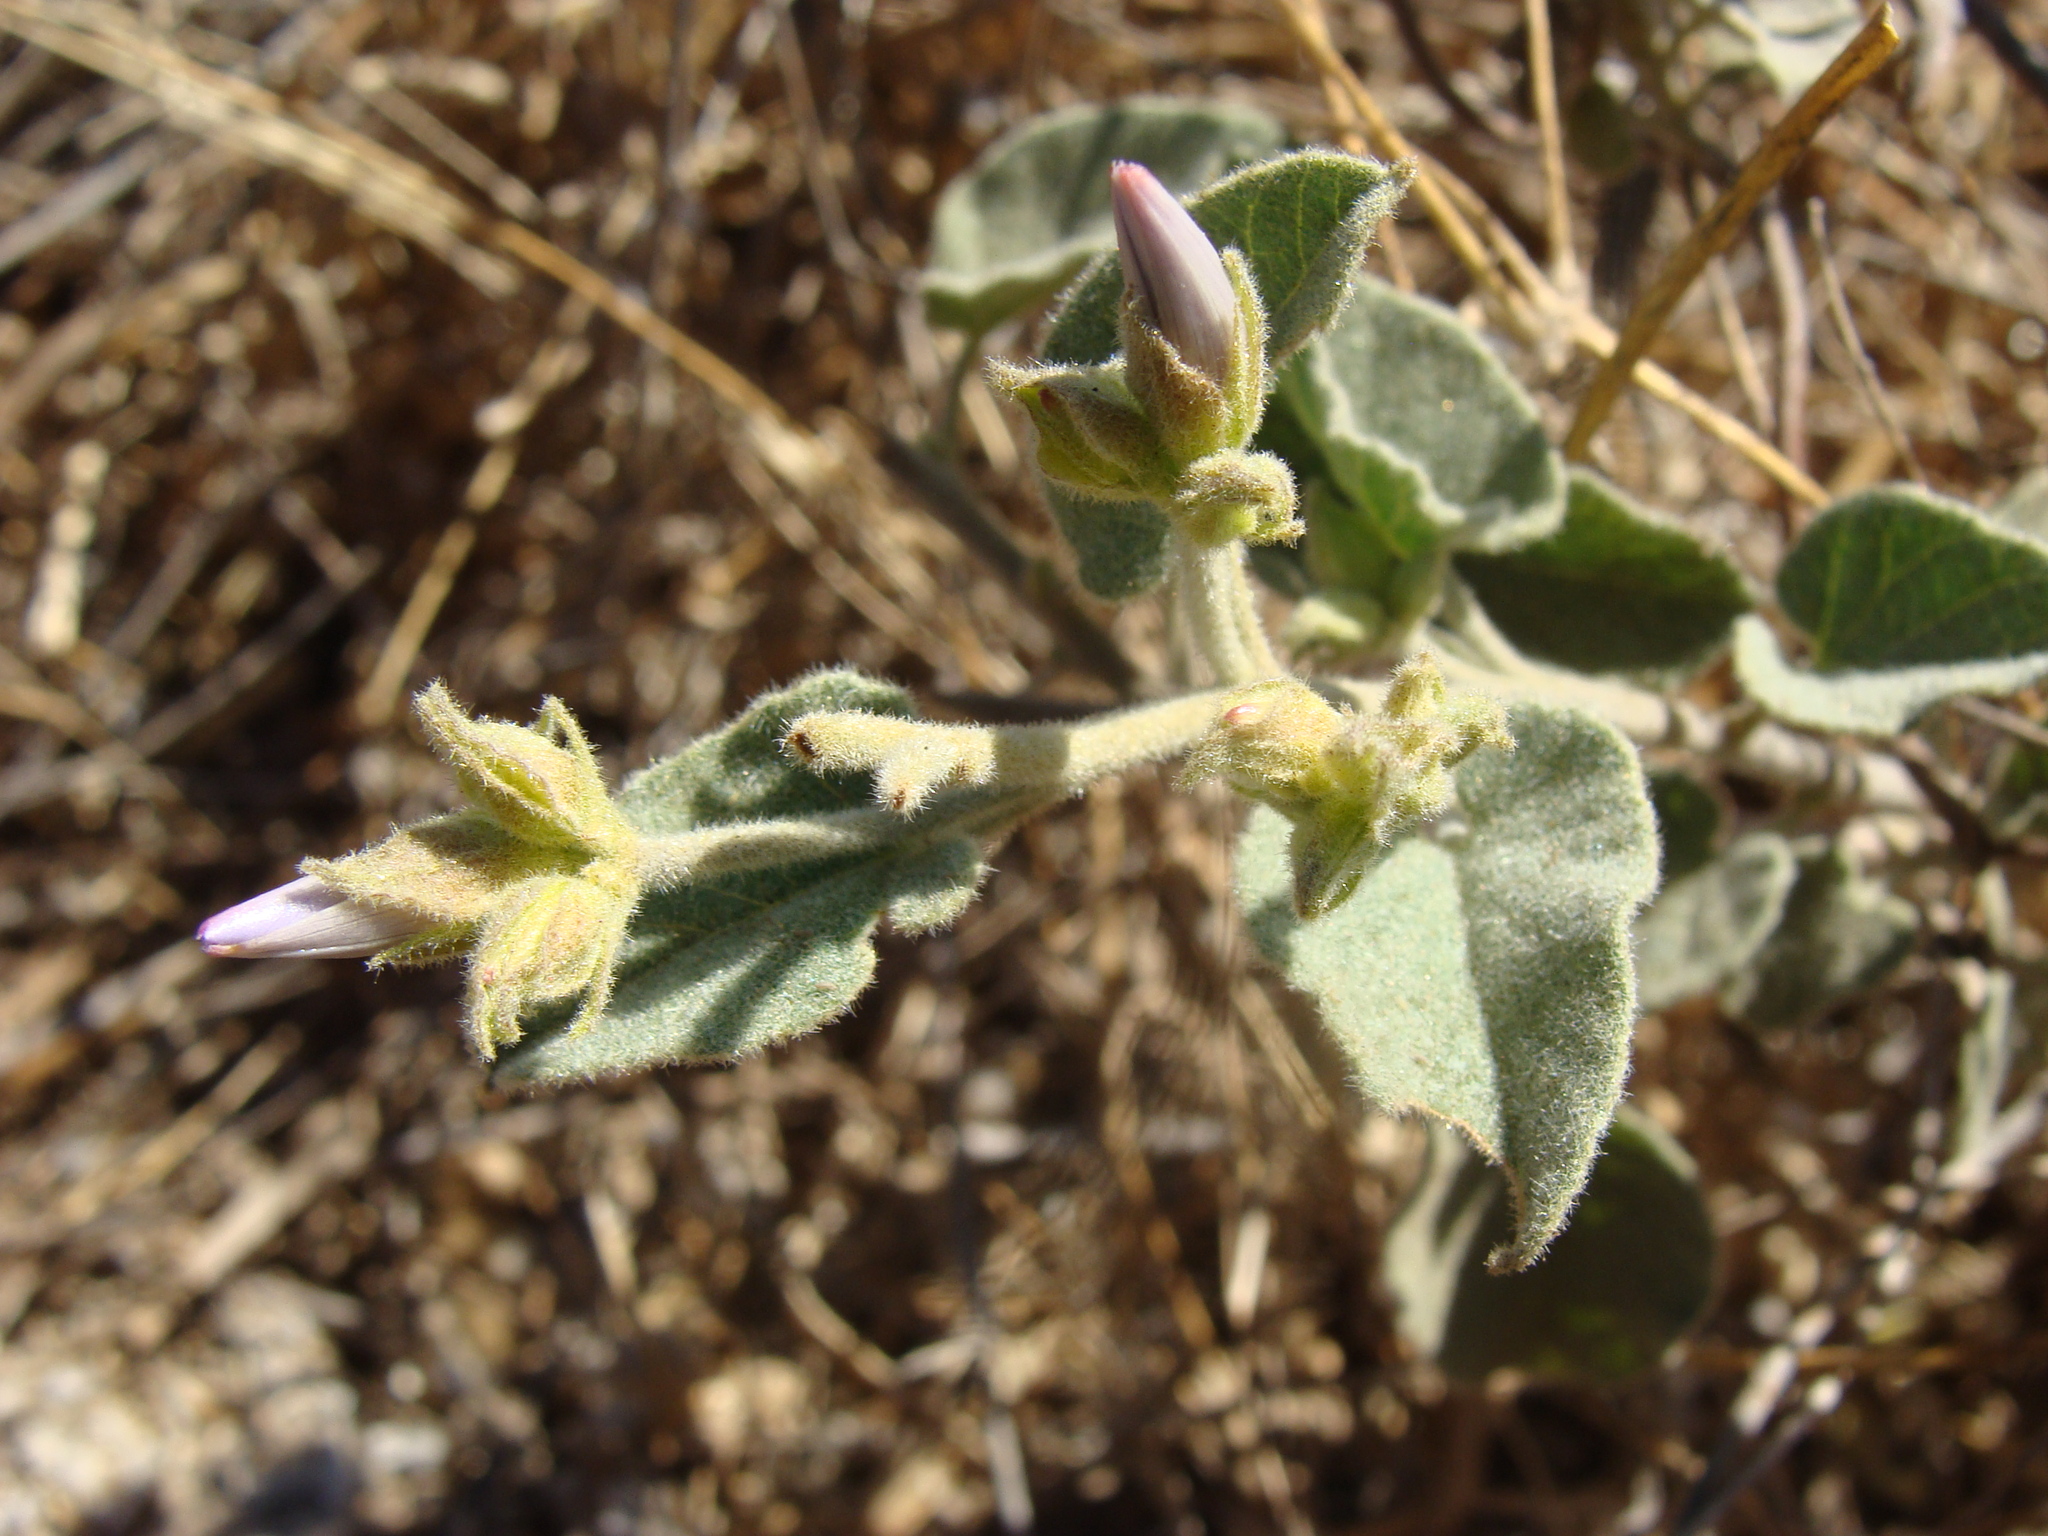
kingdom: Plantae
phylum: Tracheophyta
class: Magnoliopsida
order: Solanales
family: Convolvulaceae
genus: Jacquemontia
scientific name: Jacquemontia abutiloides
